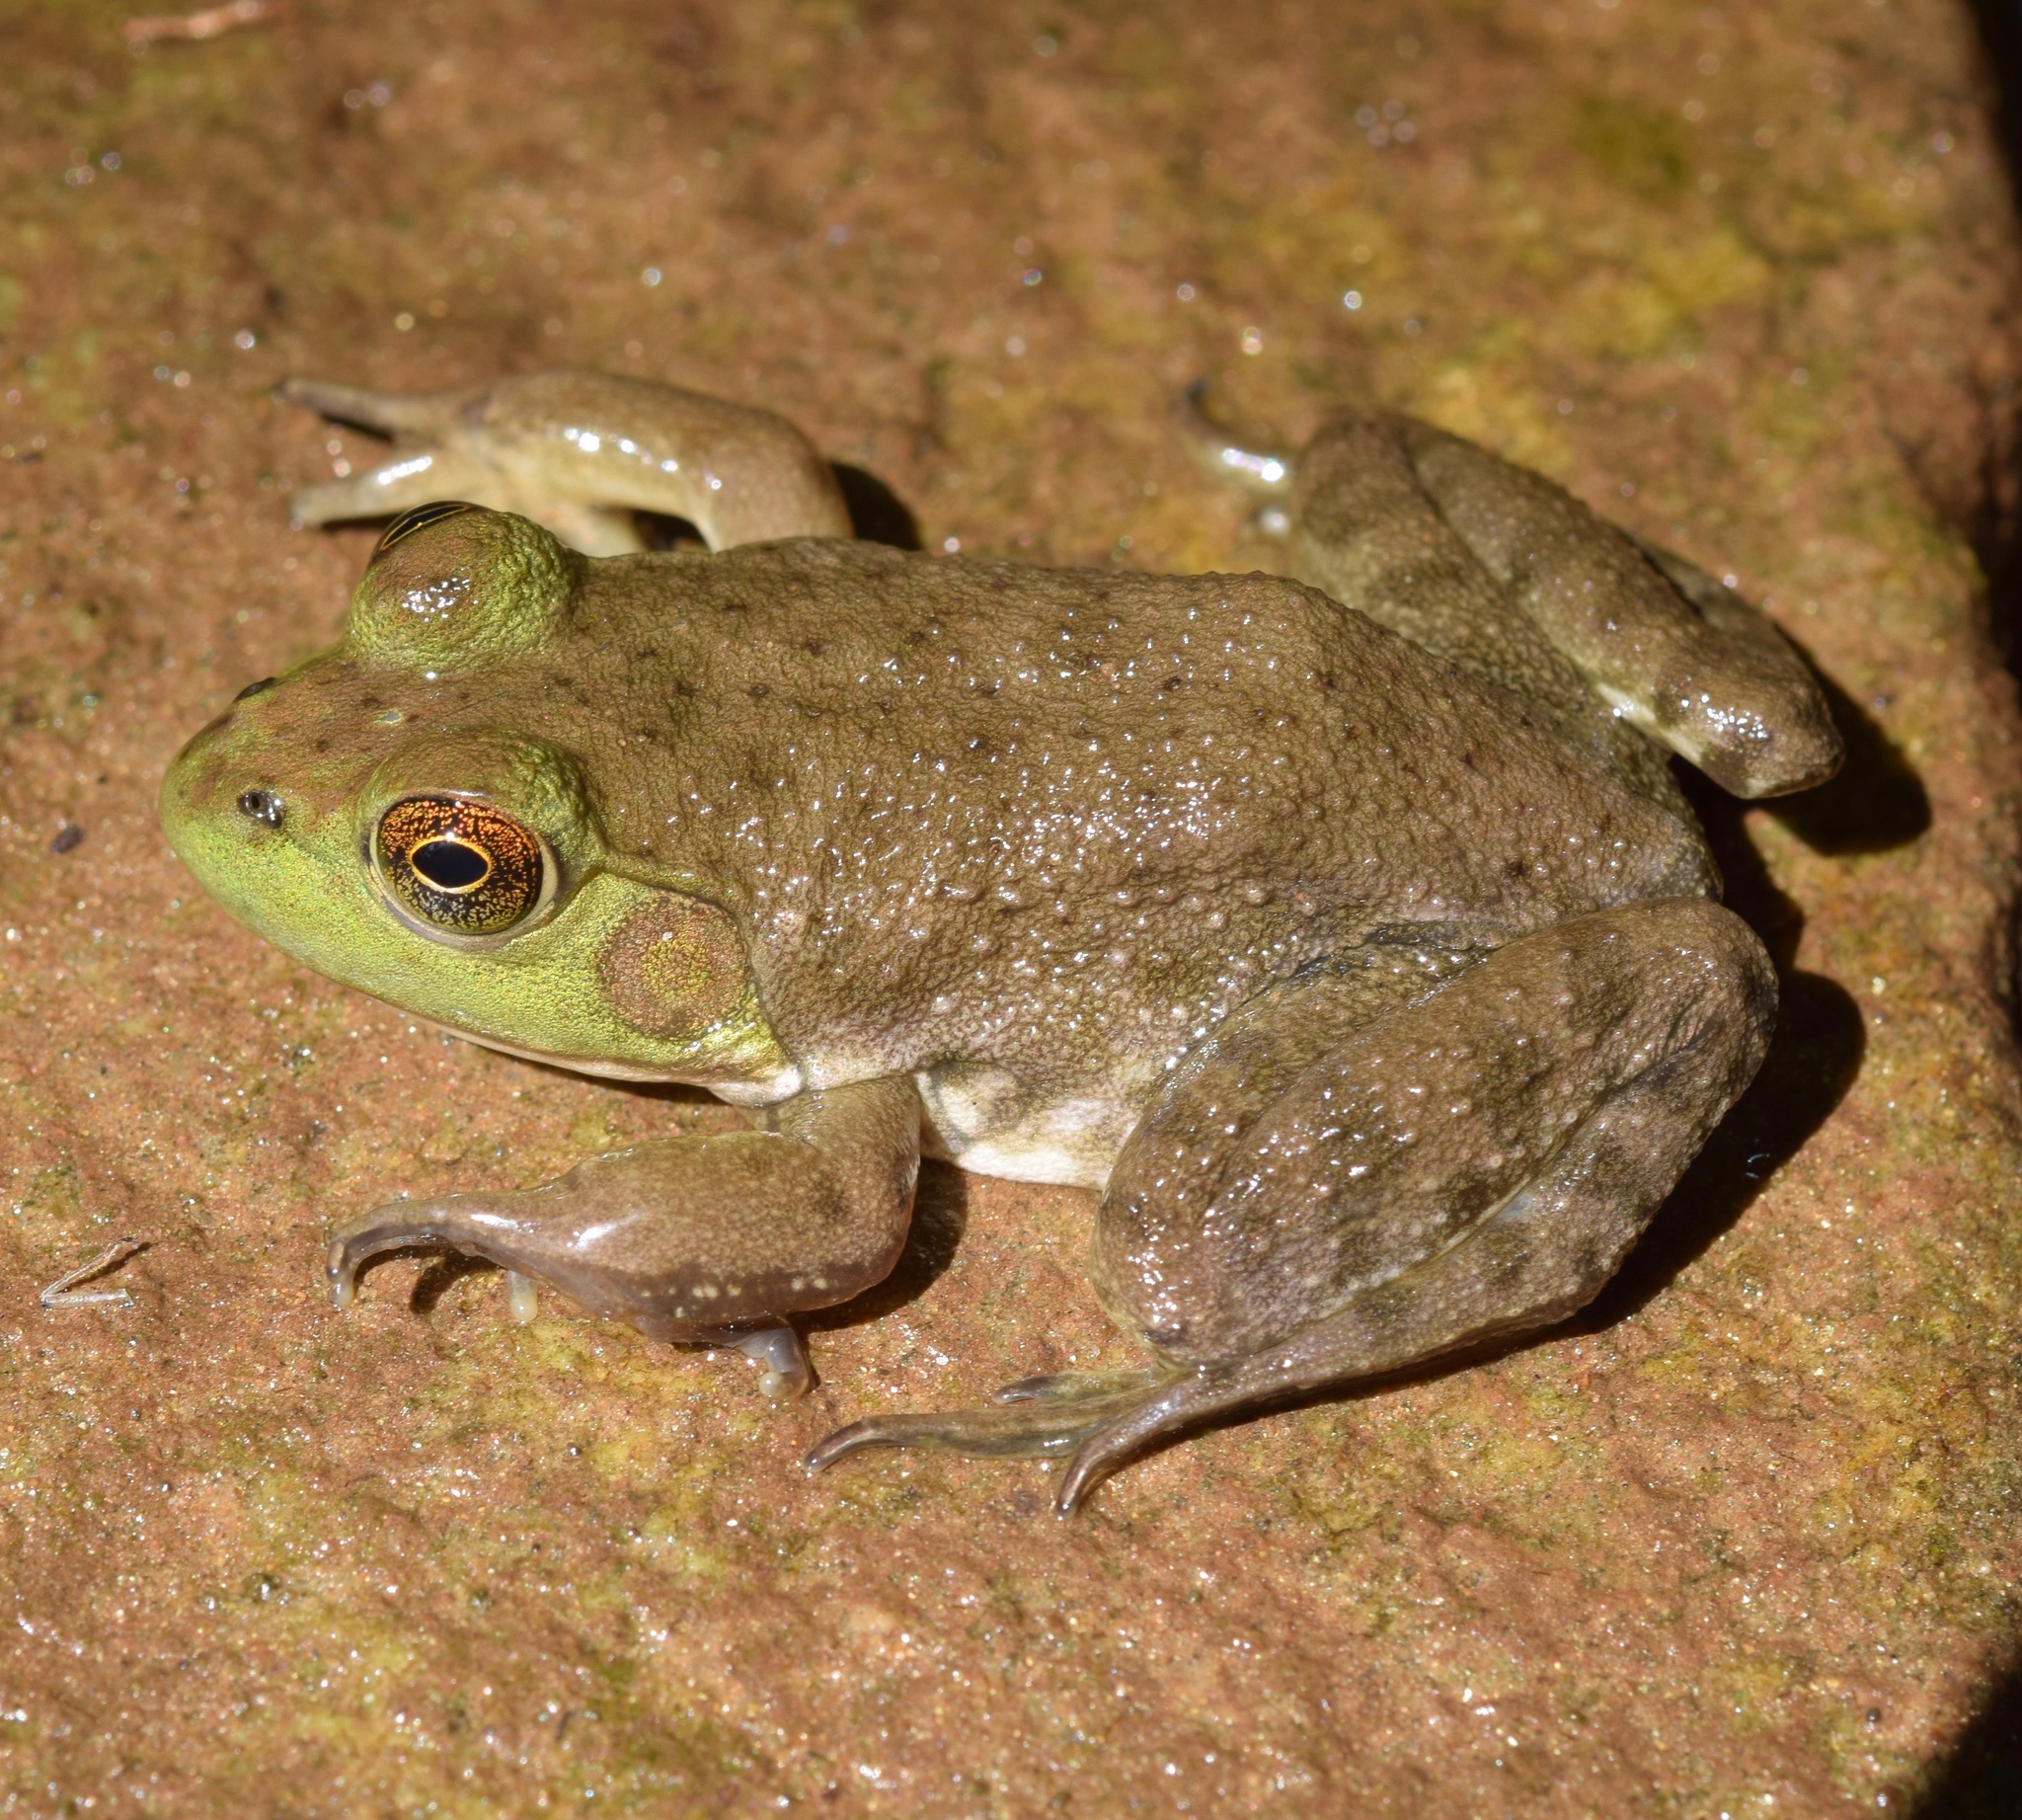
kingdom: Animalia
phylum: Chordata
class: Amphibia
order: Anura
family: Ranidae
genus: Lithobates
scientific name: Lithobates catesbeianus
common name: American bullfrog
